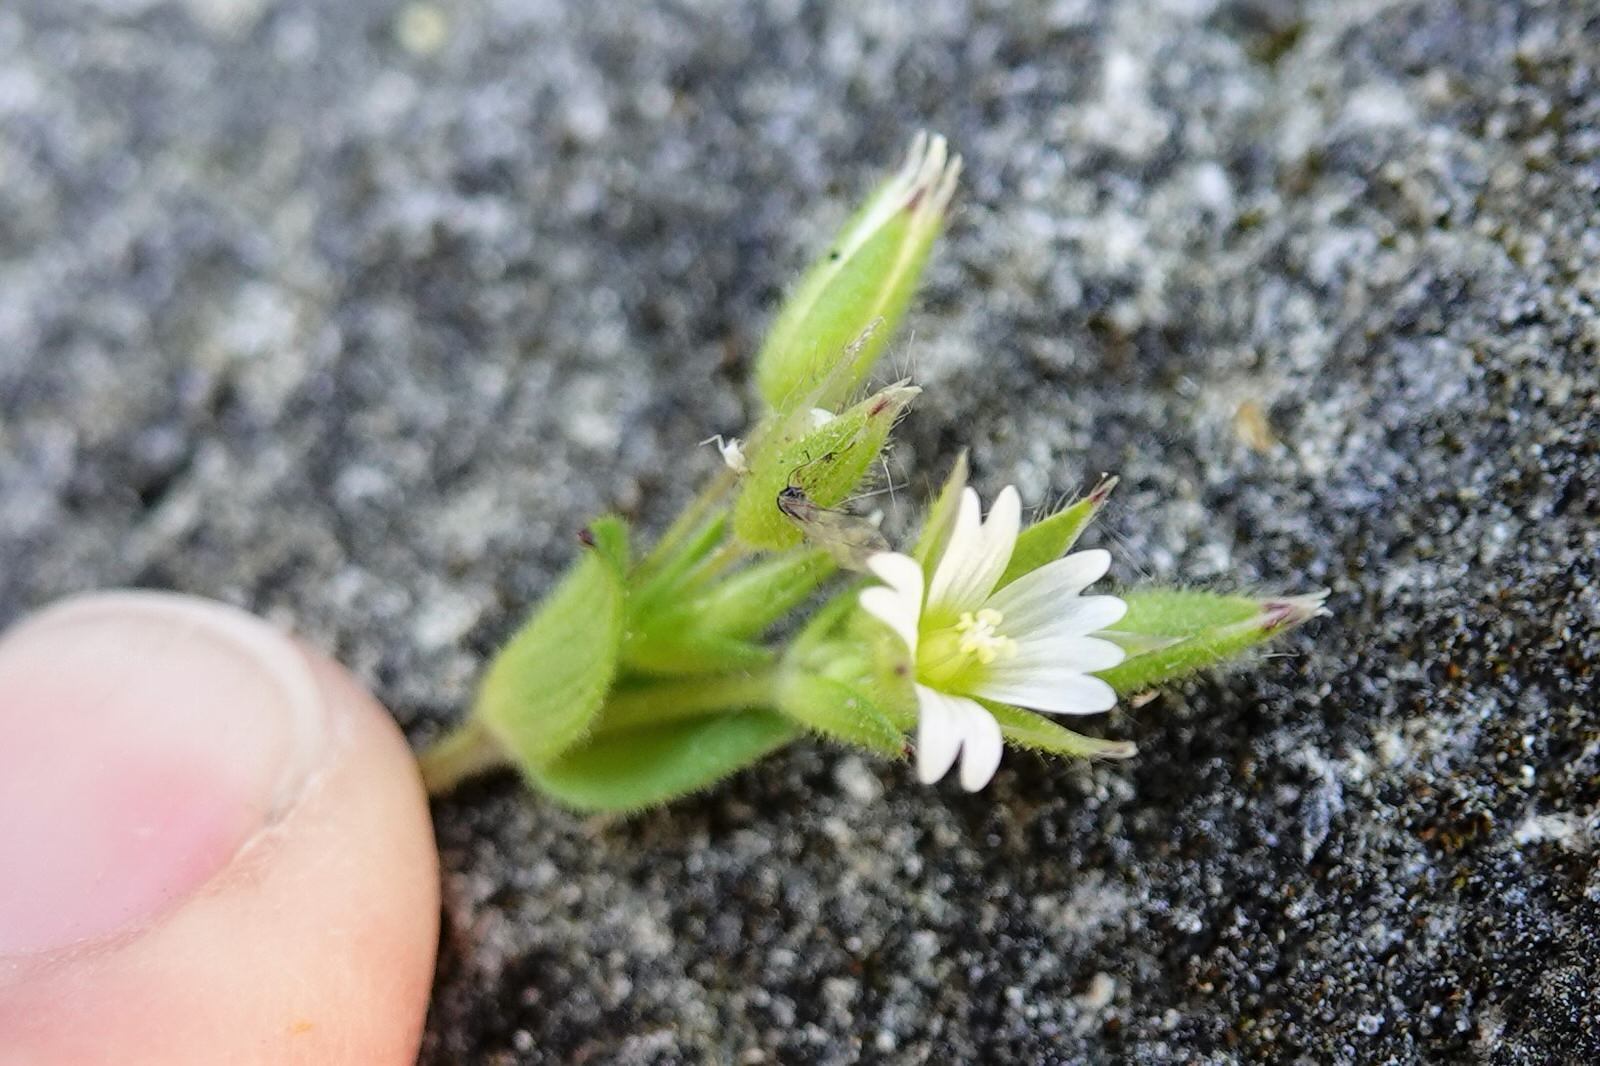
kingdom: Plantae
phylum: Tracheophyta
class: Magnoliopsida
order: Caryophyllales
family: Caryophyllaceae
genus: Cerastium
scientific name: Cerastium glomeratum
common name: Sticky chickweed
